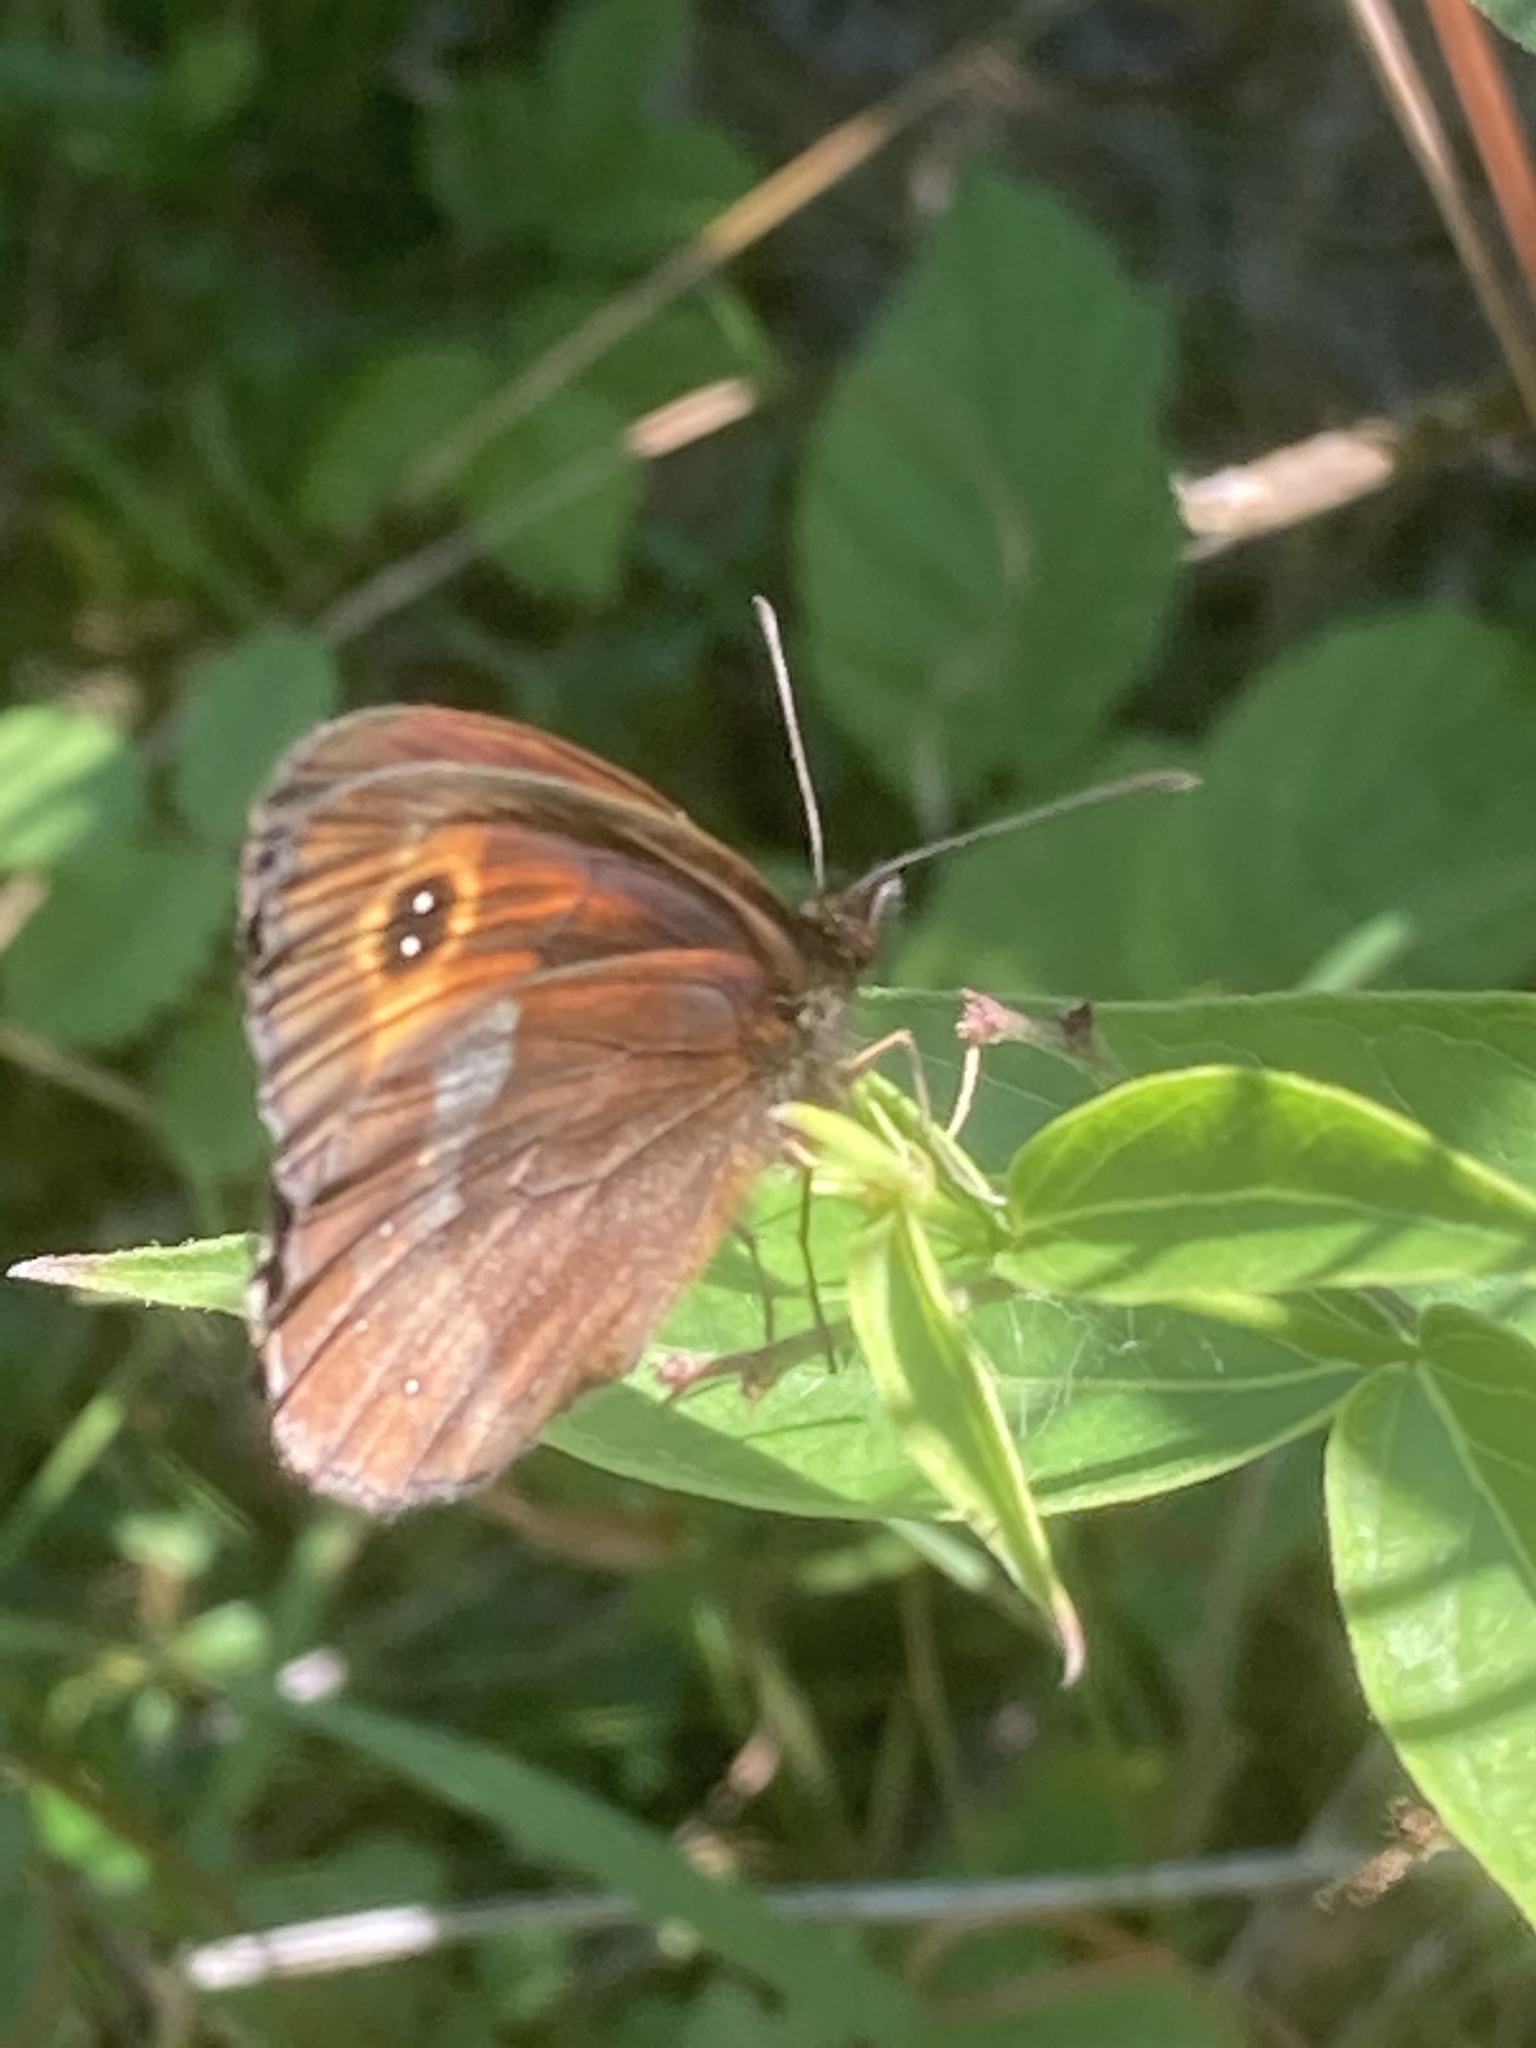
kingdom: Animalia
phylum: Arthropoda
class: Insecta
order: Lepidoptera
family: Nymphalidae
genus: Erebia
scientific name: Erebia aethiops
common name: Scotch argus
